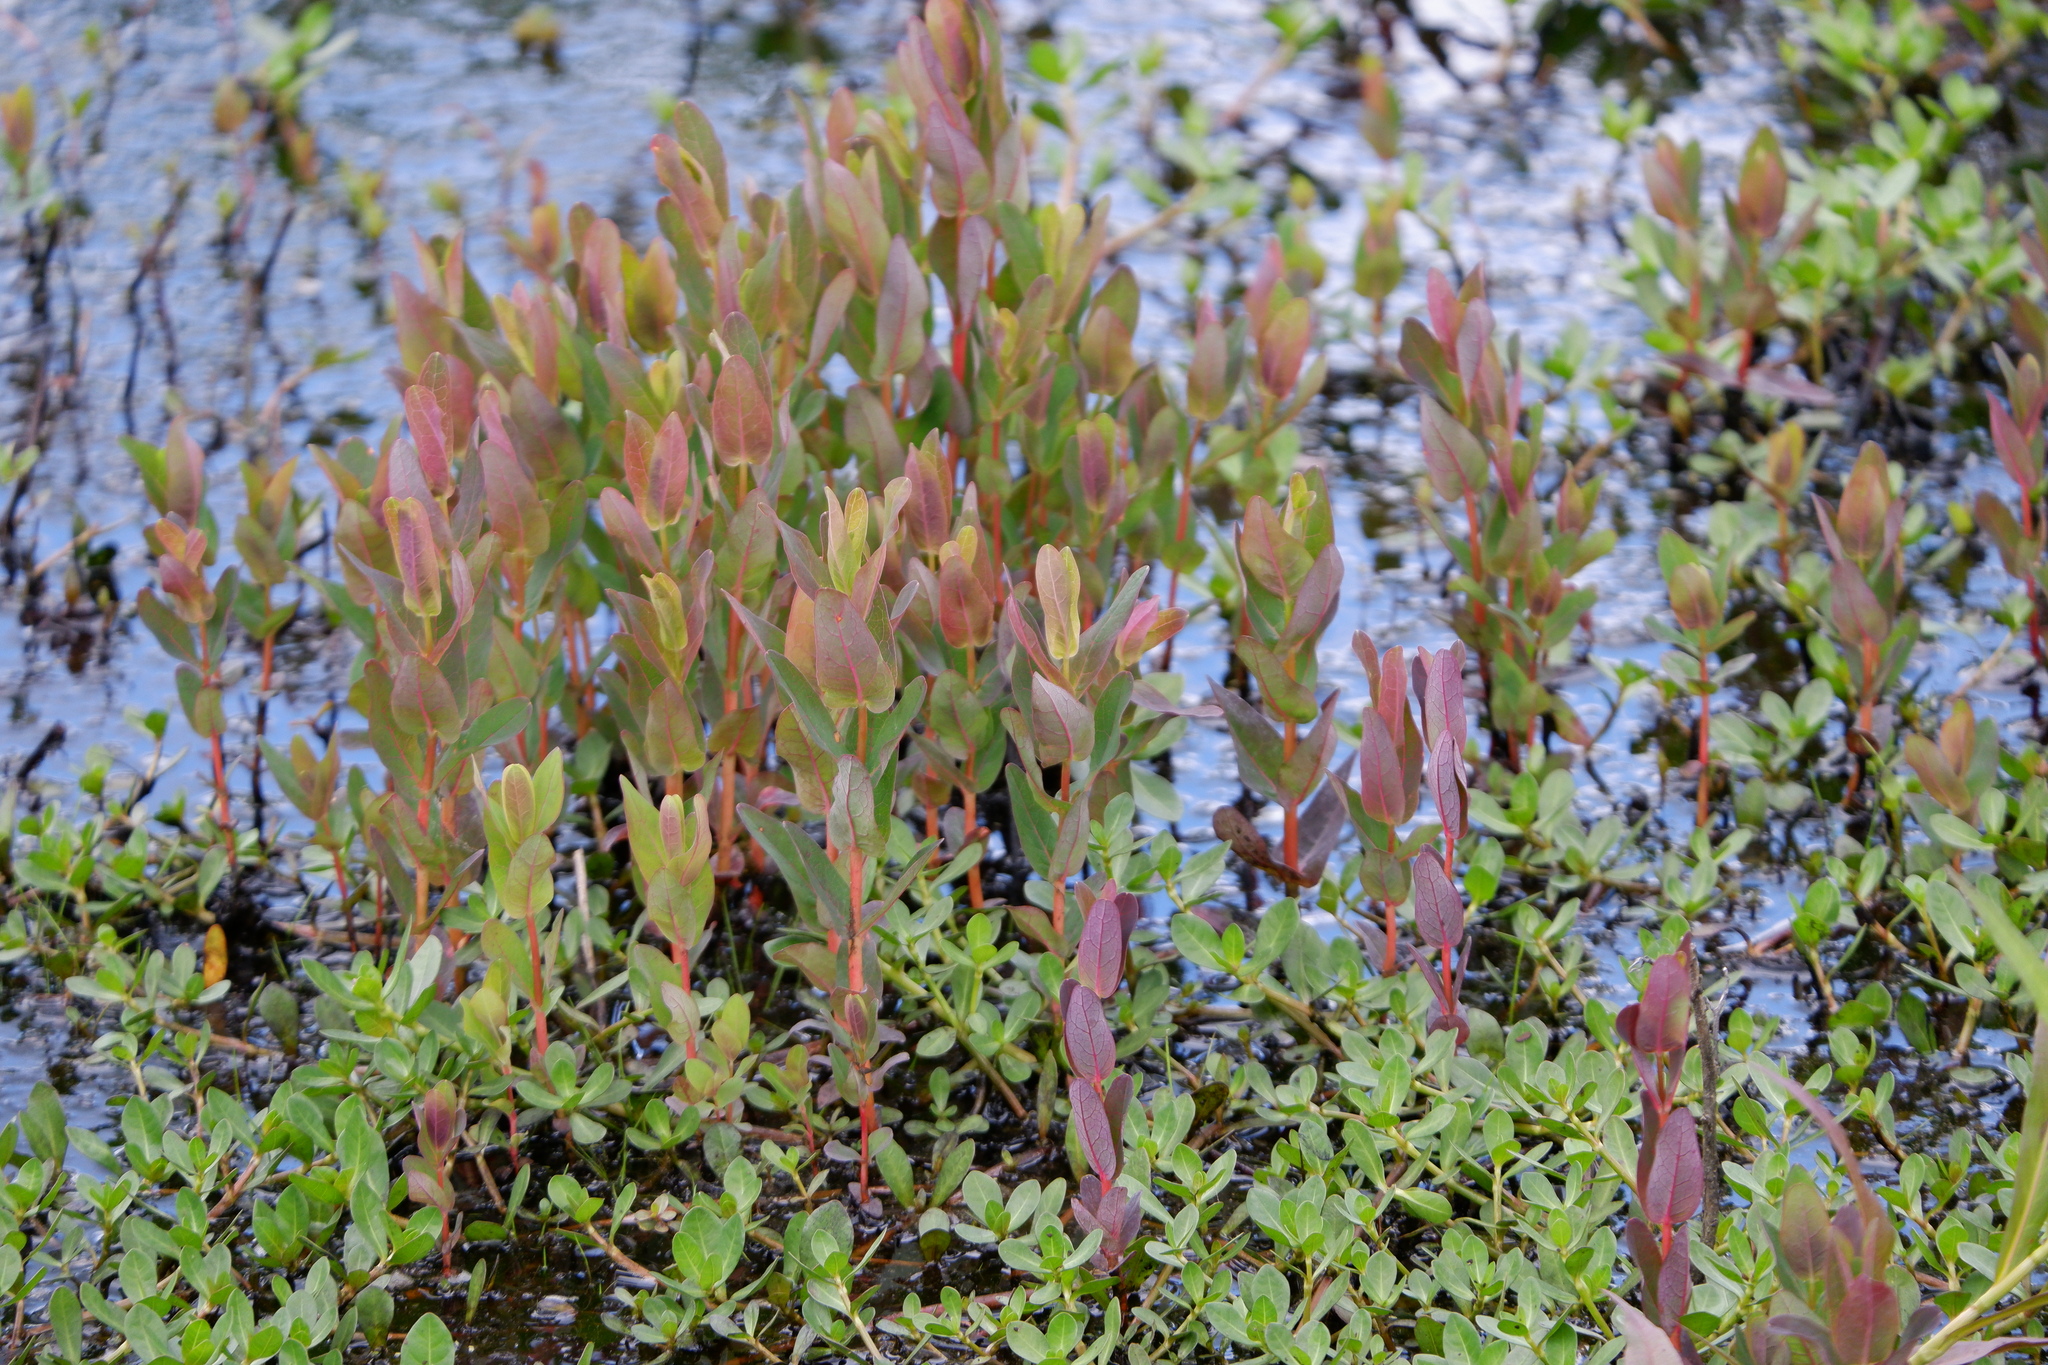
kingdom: Plantae
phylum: Tracheophyta
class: Magnoliopsida
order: Malpighiales
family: Hypericaceae
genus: Triadenum
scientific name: Triadenum virginicum
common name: Marsh st. john's-wort
